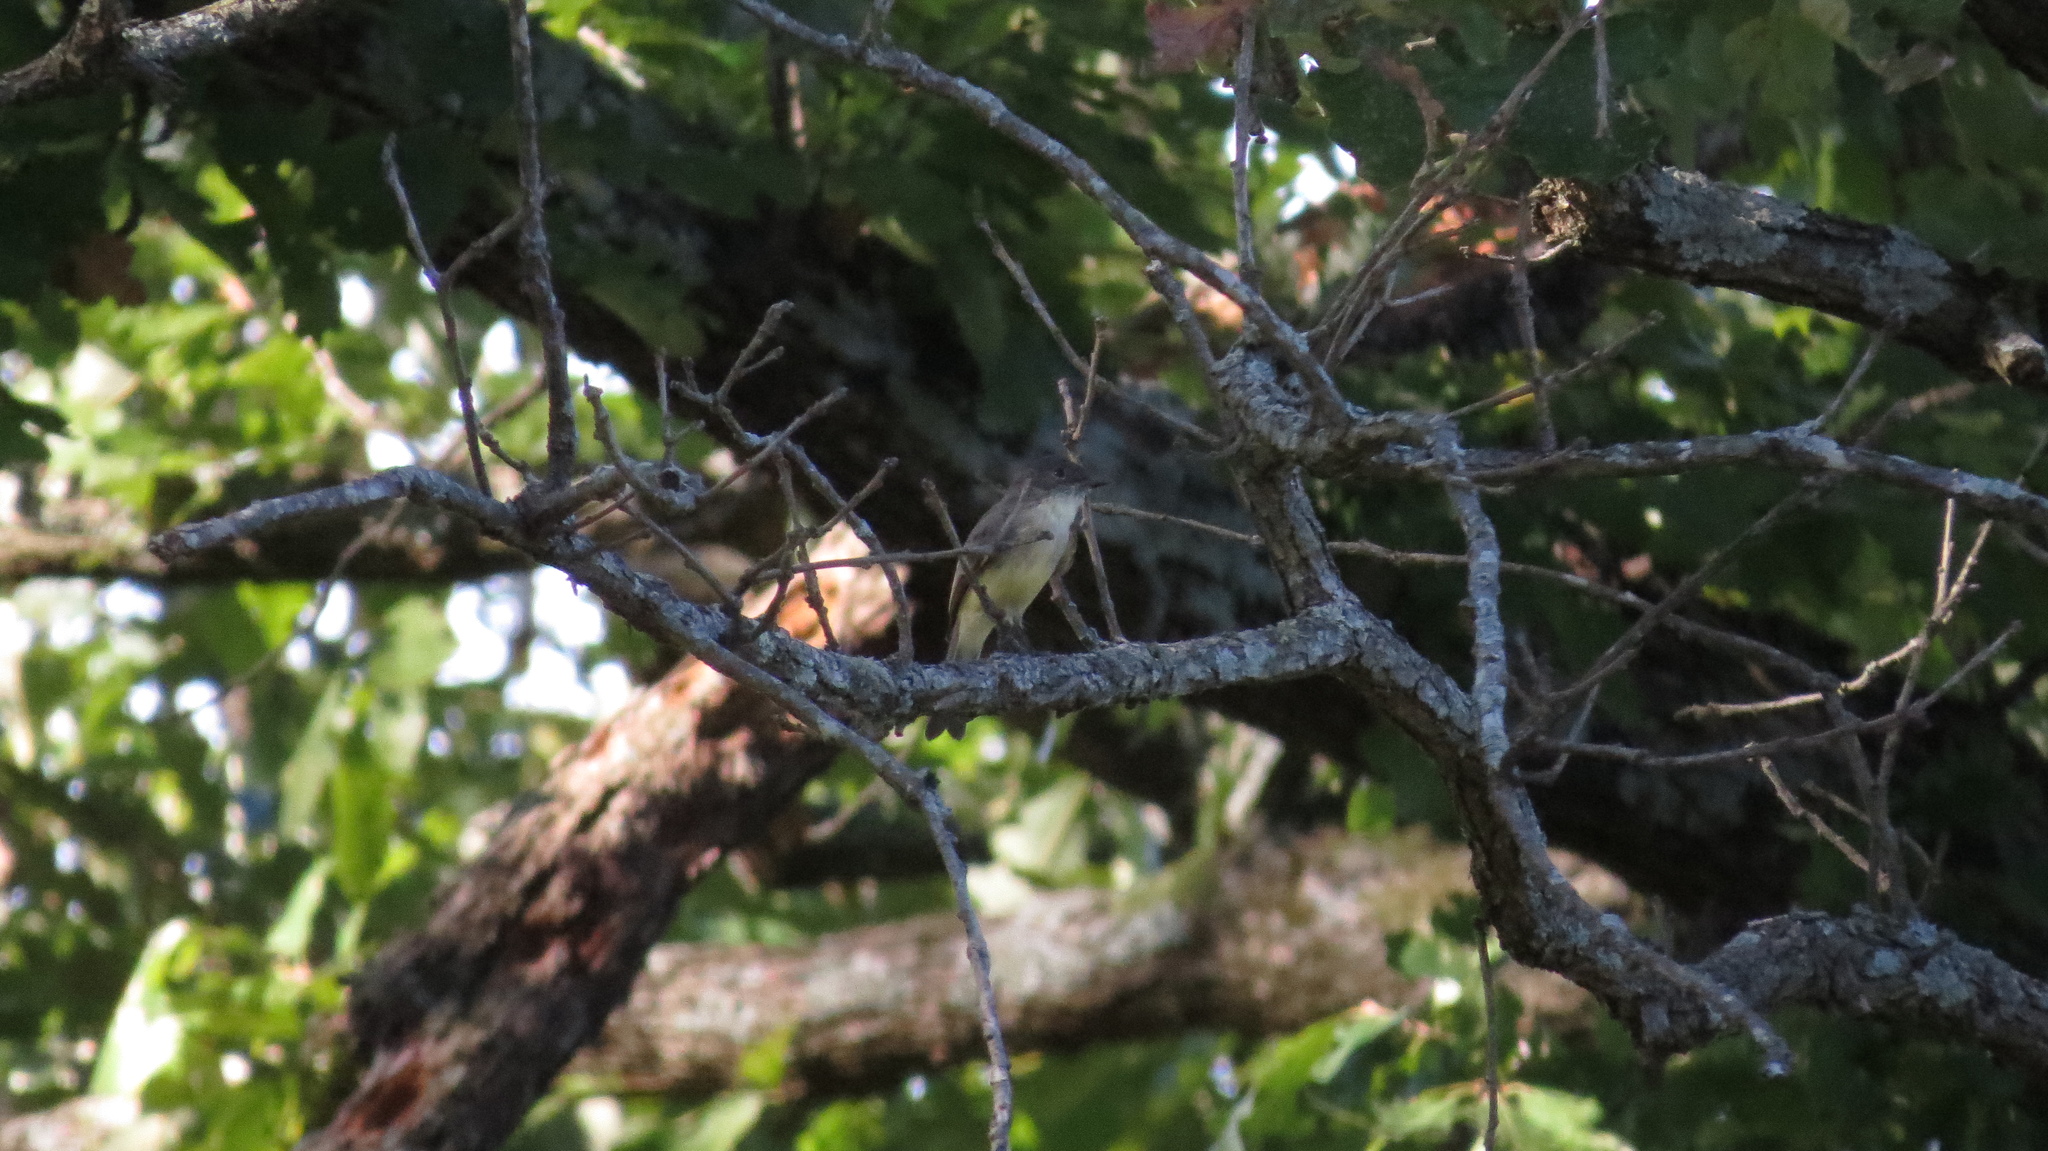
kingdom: Animalia
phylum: Chordata
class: Aves
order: Passeriformes
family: Tyrannidae
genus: Sayornis
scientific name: Sayornis phoebe
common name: Eastern phoebe
